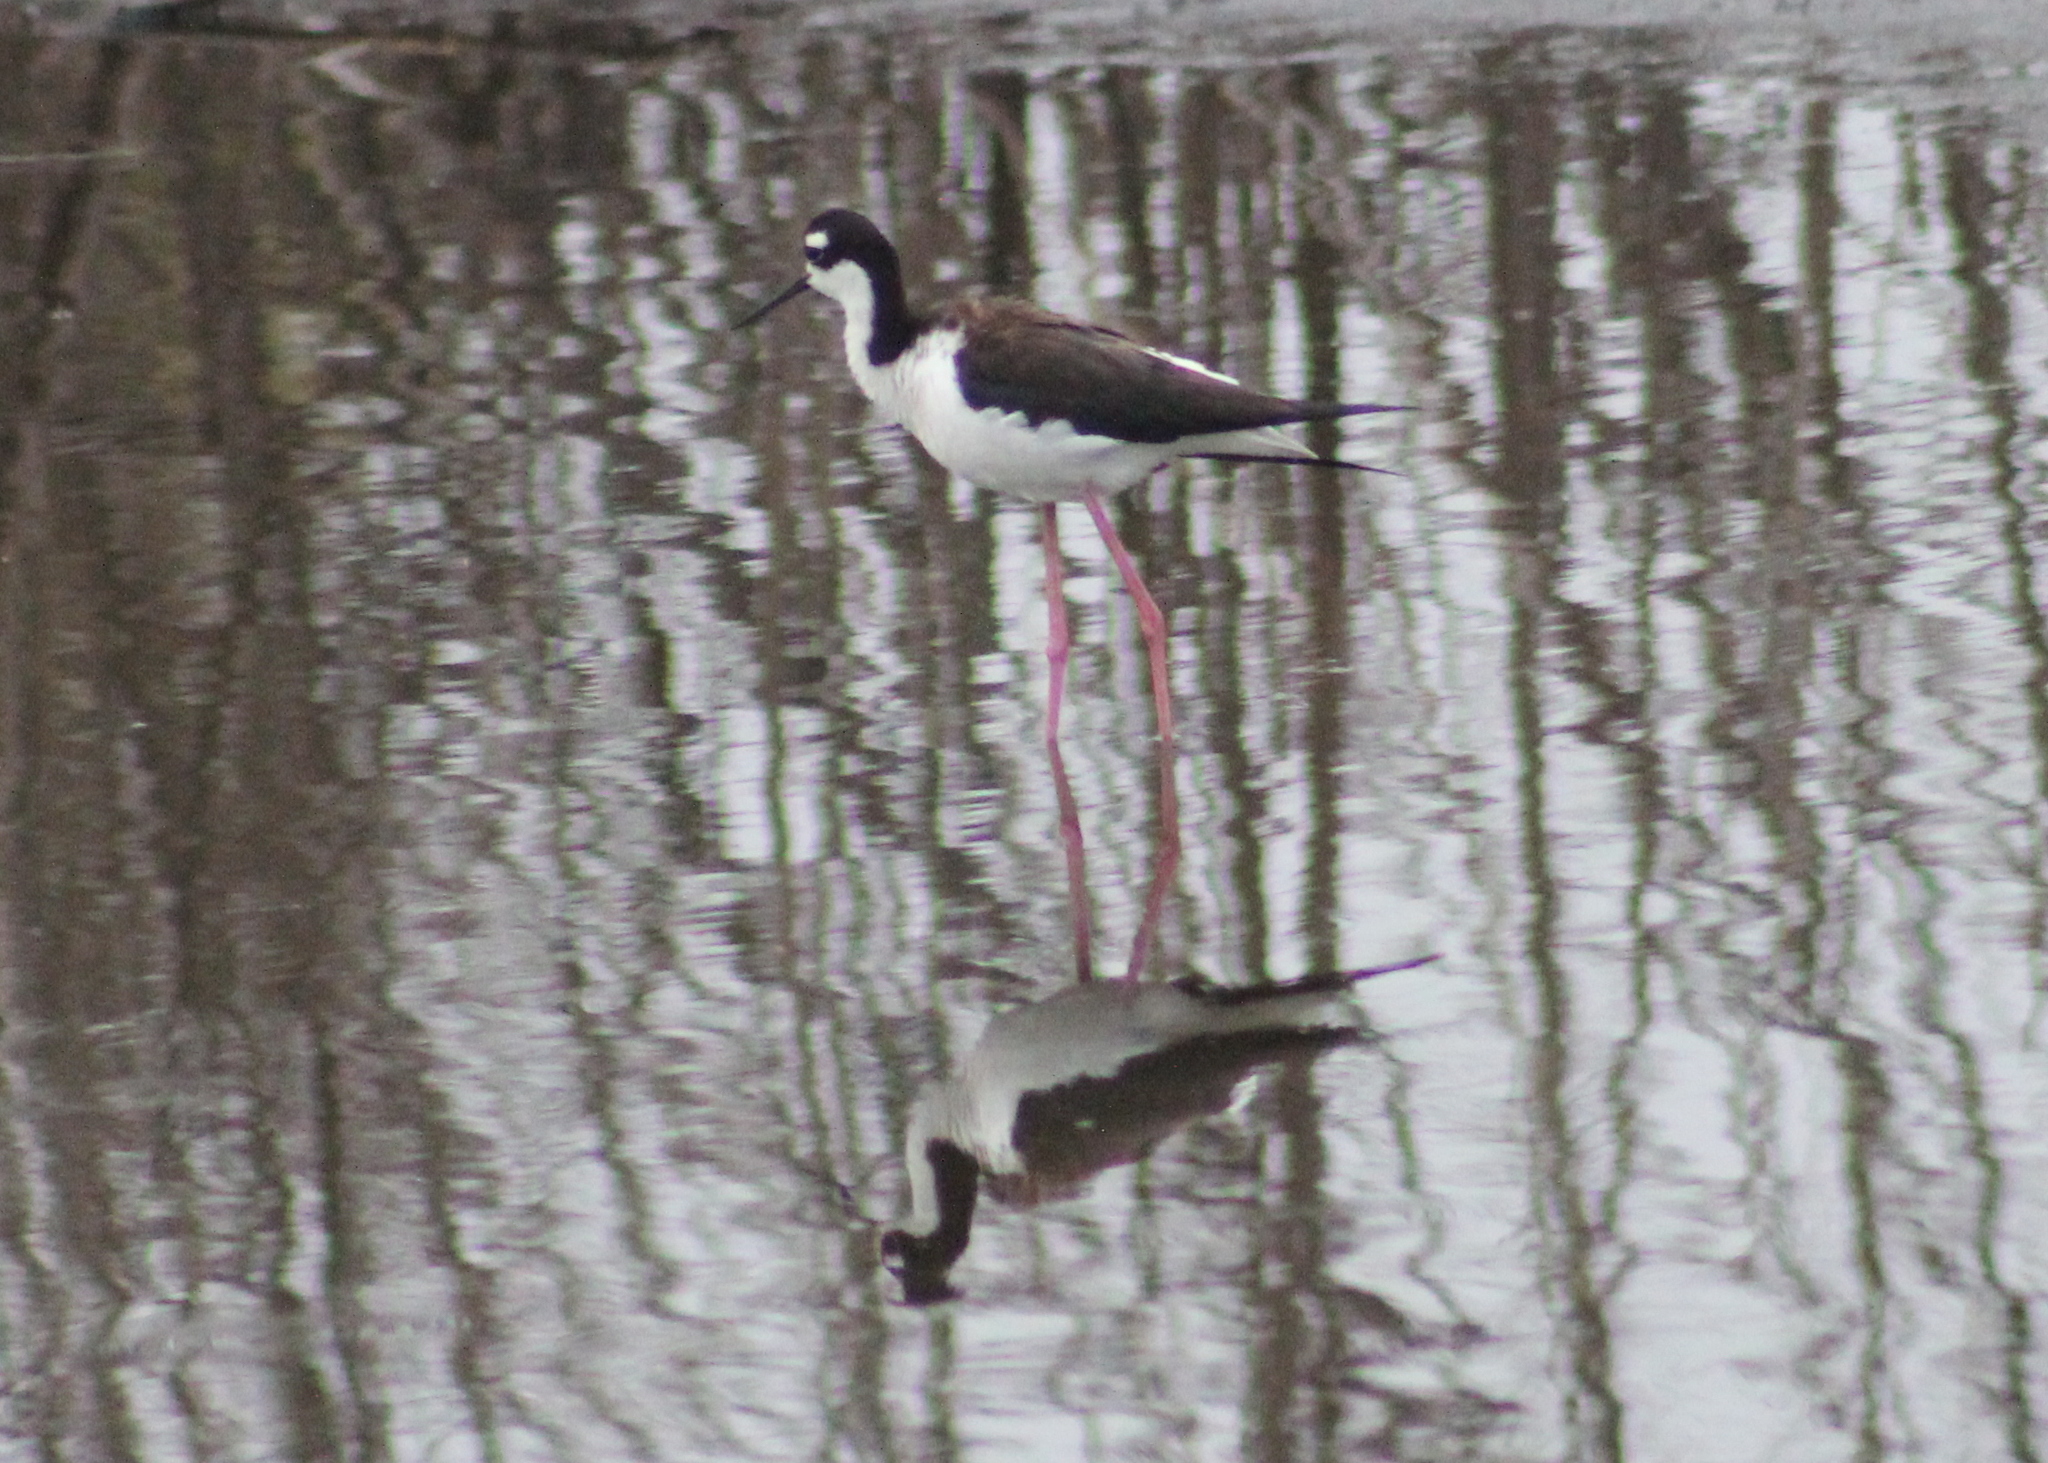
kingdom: Animalia
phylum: Chordata
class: Aves
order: Charadriiformes
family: Recurvirostridae
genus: Himantopus
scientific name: Himantopus mexicanus
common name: Black-necked stilt
